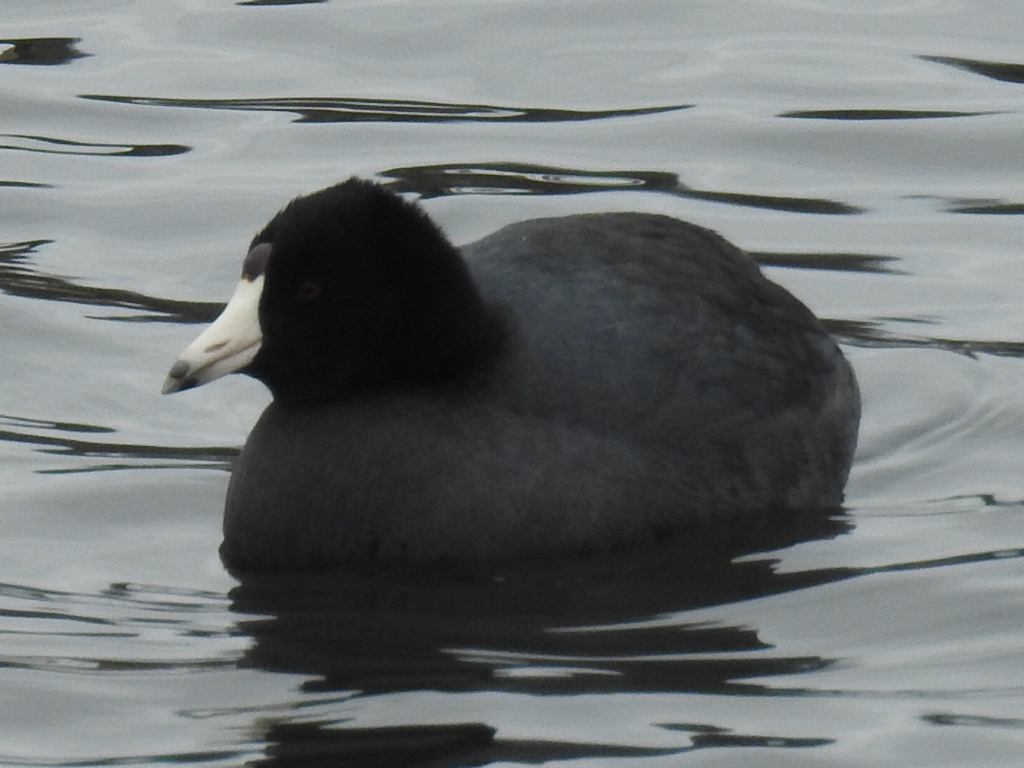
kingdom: Animalia
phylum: Chordata
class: Aves
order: Gruiformes
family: Rallidae
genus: Fulica
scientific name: Fulica americana
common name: American coot
